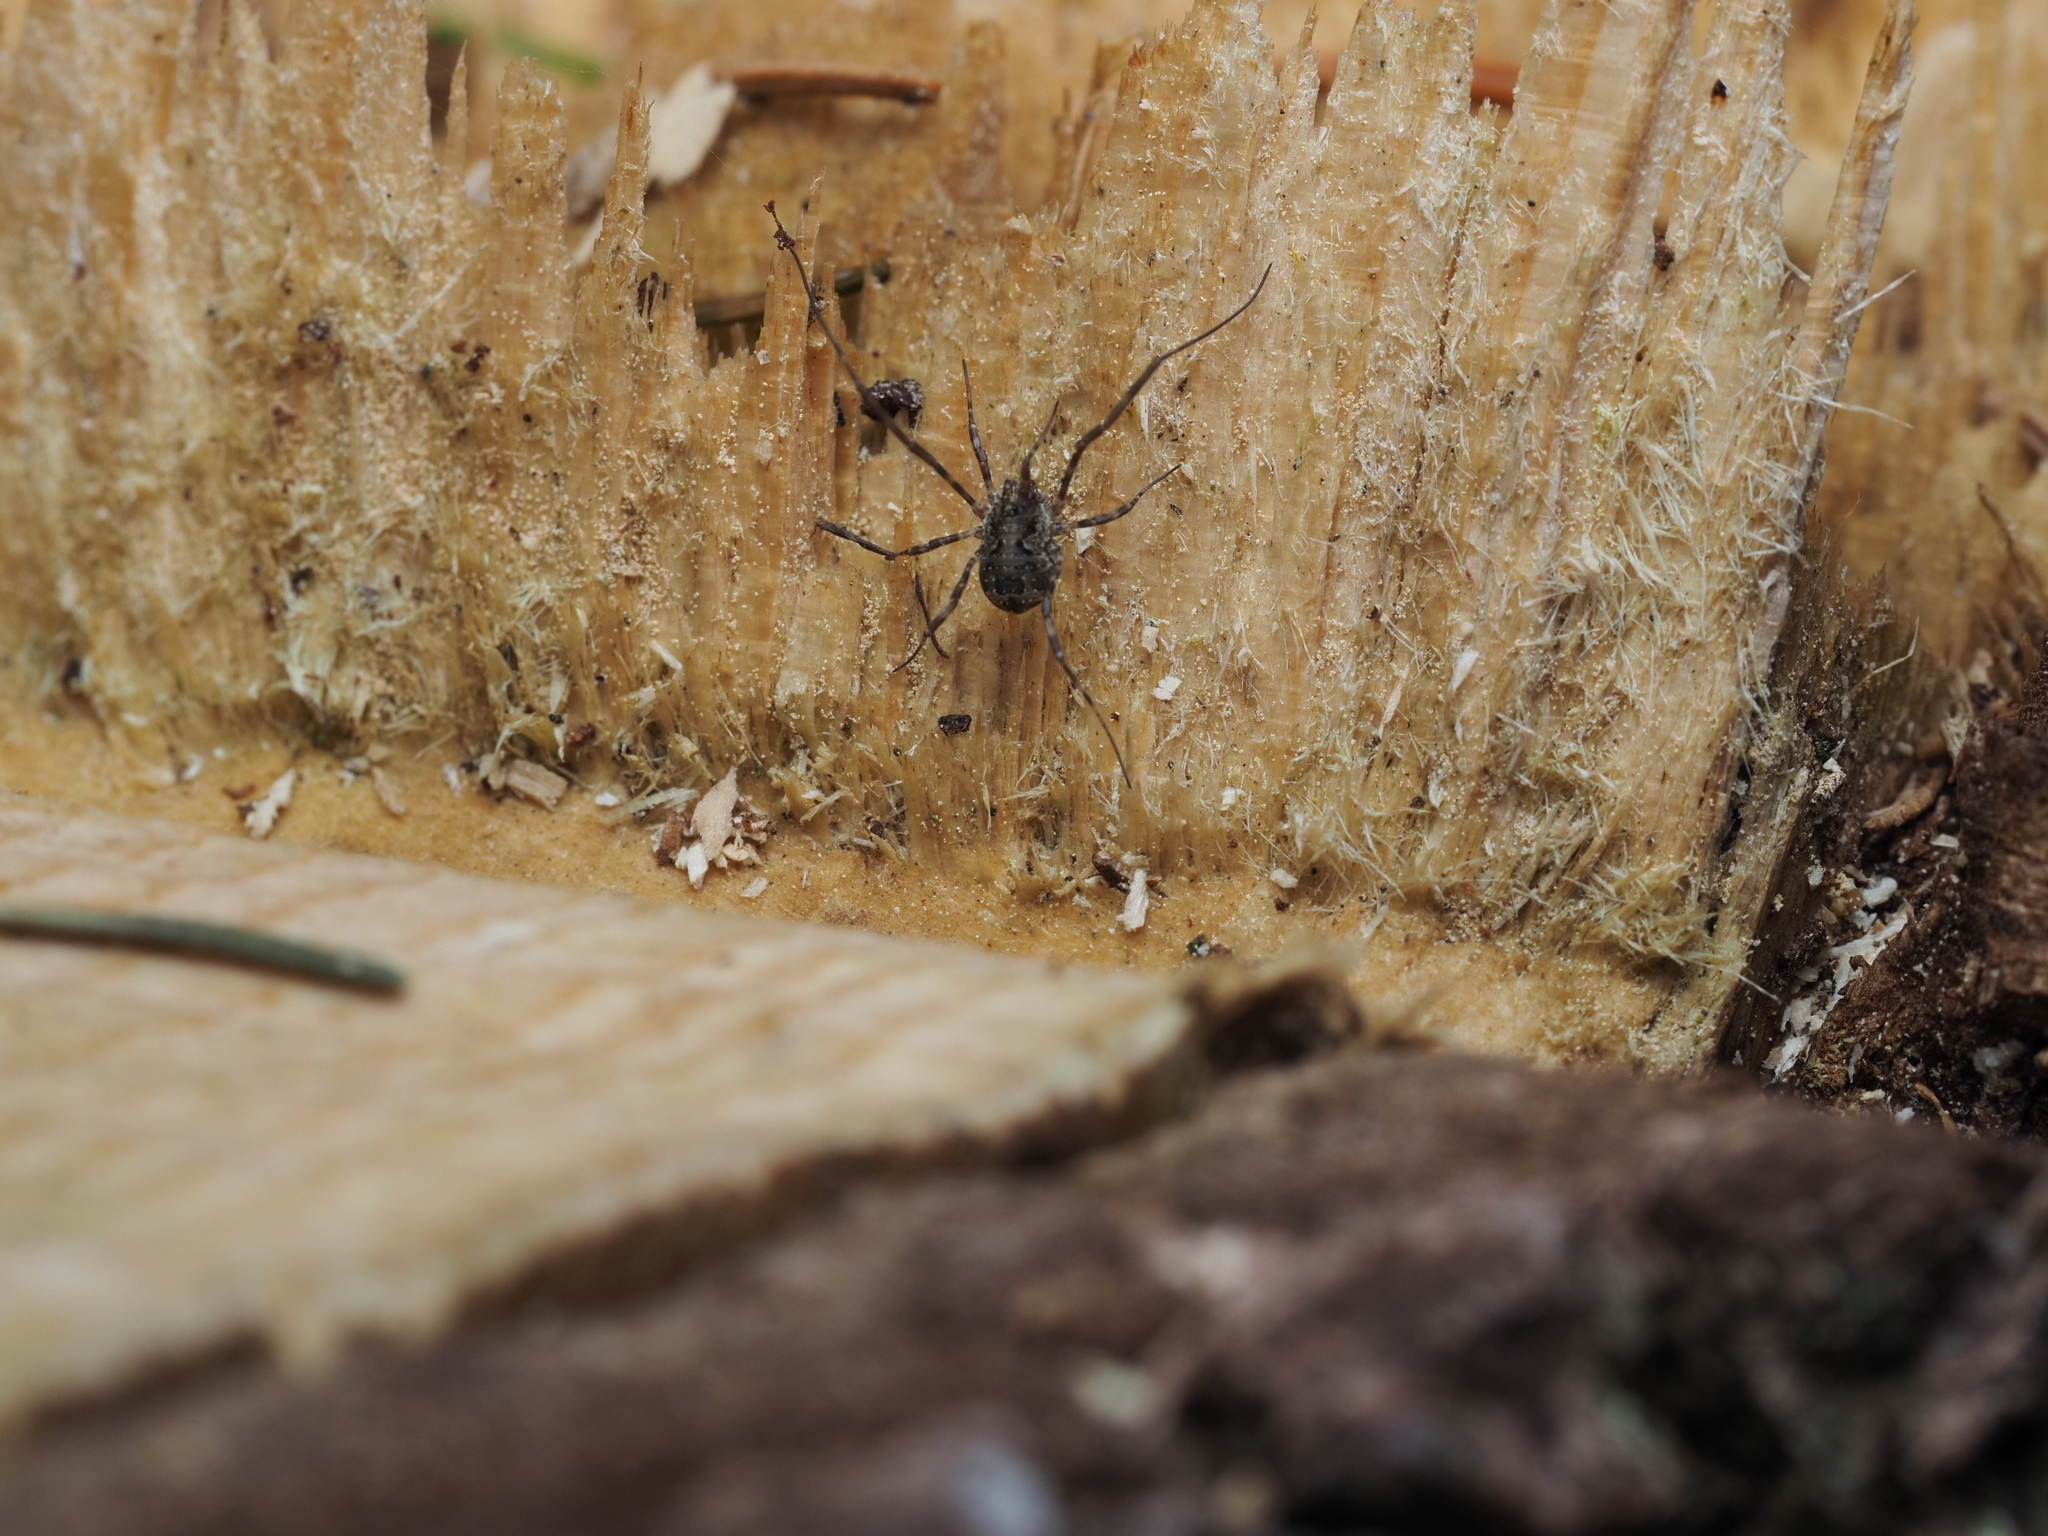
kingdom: Animalia
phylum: Arthropoda
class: Arachnida
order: Opiliones
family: Phalangiidae
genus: Lacinius
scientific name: Lacinius dentiger
